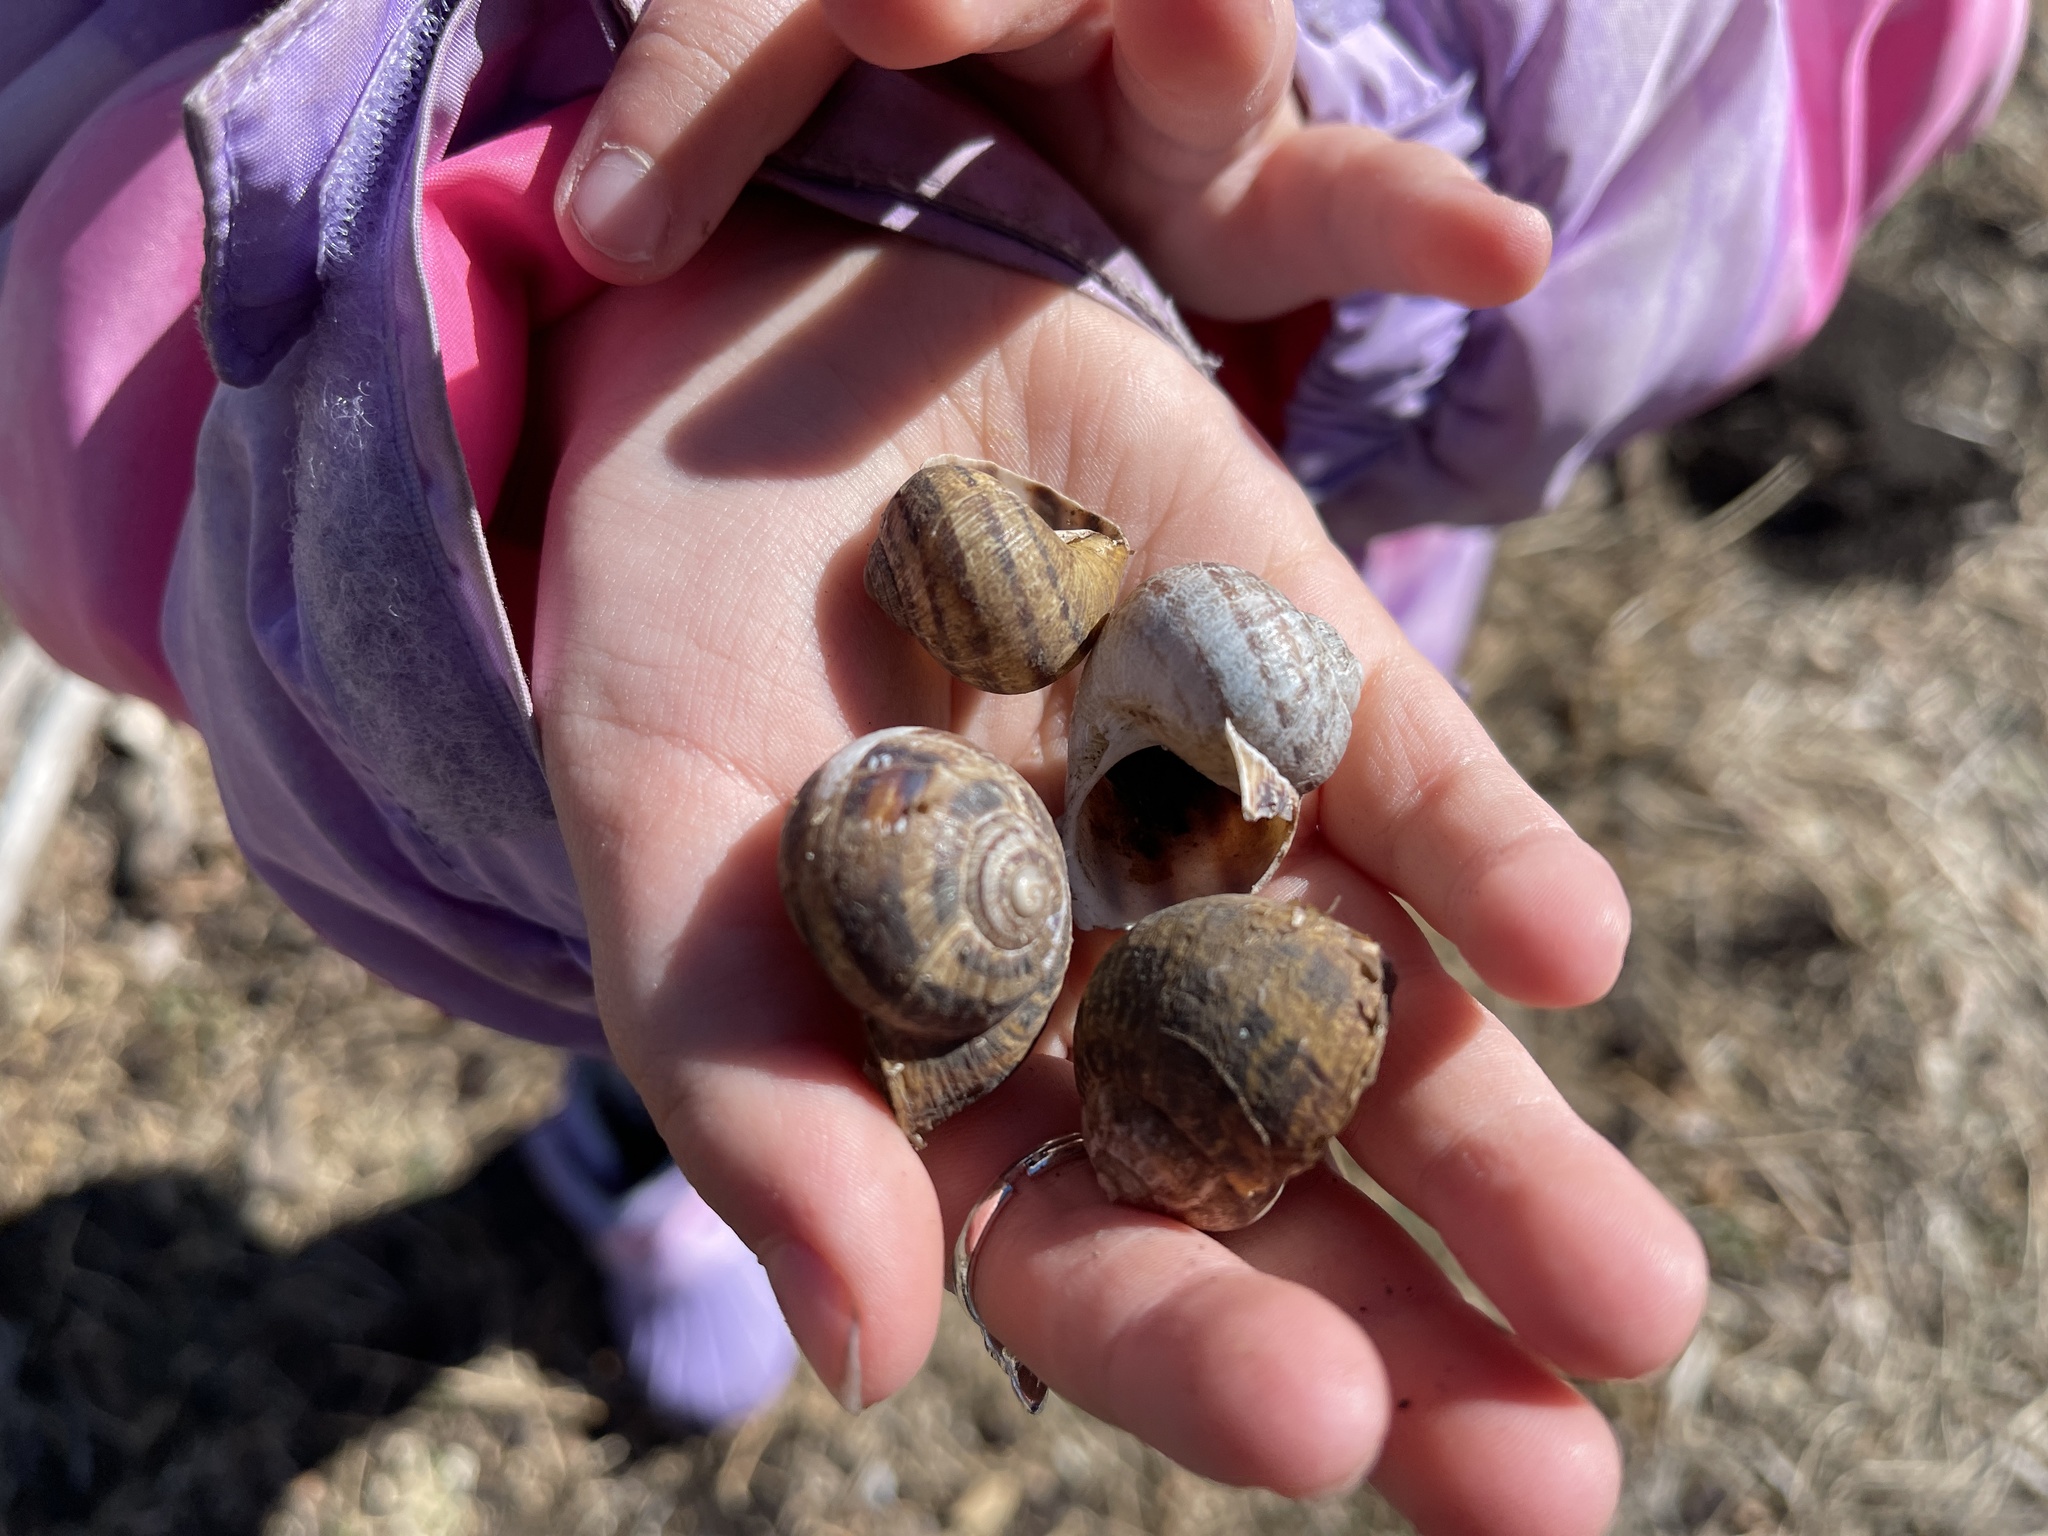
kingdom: Animalia
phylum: Mollusca
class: Gastropoda
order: Stylommatophora
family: Helicidae
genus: Cornu
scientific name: Cornu aspersum
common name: Brown garden snail
